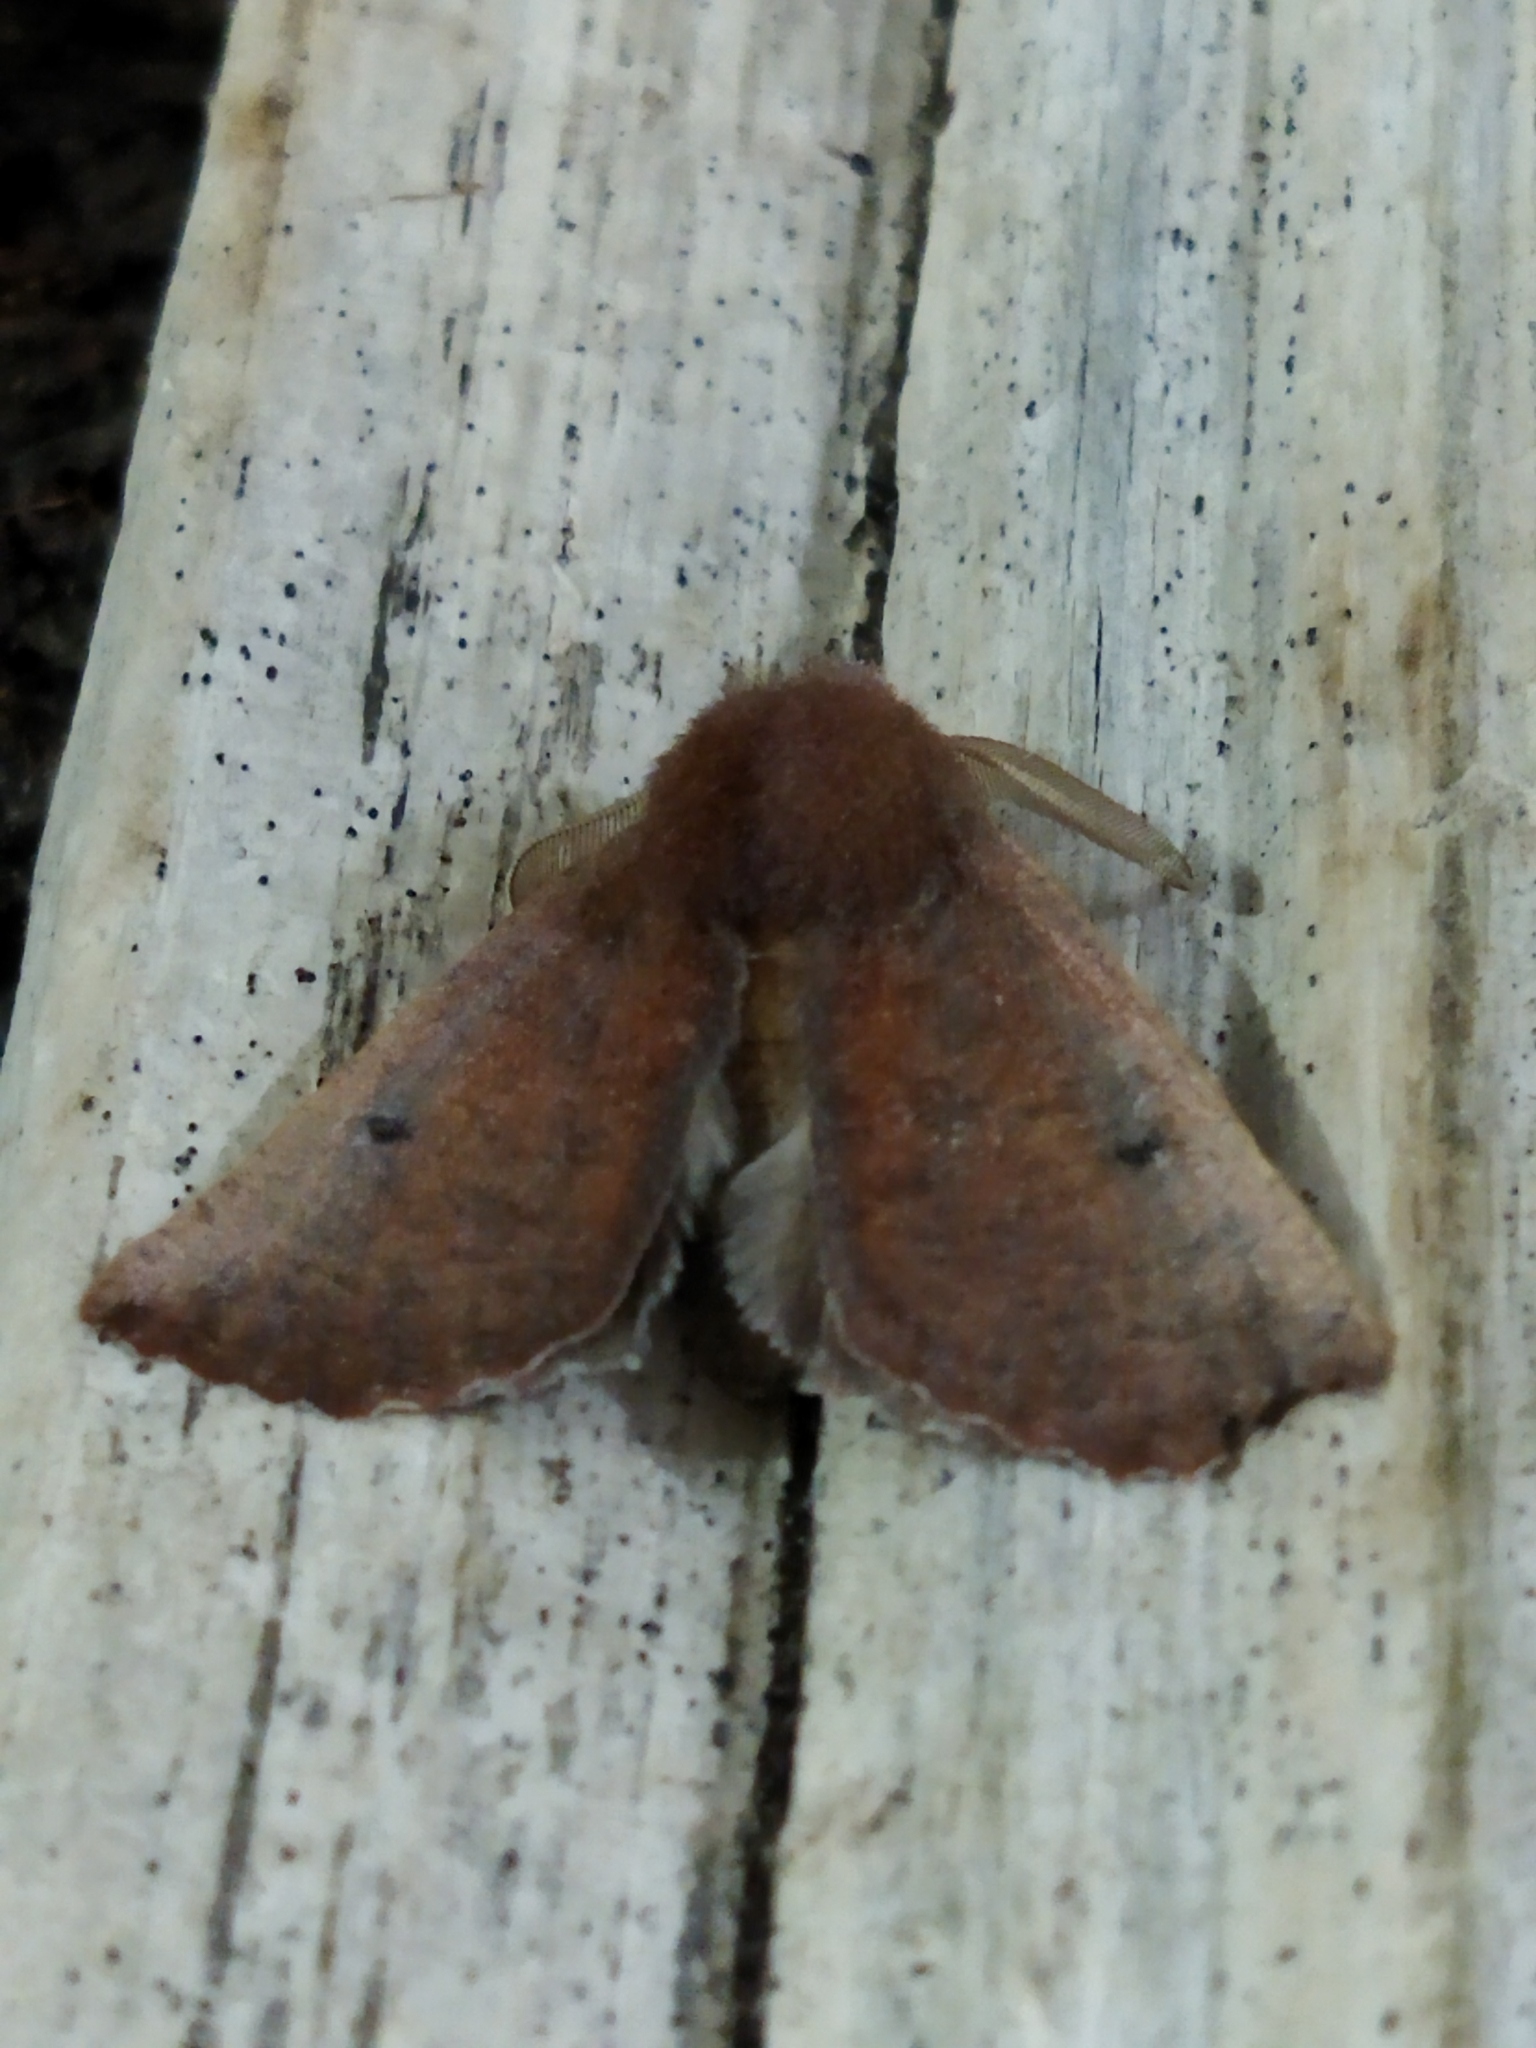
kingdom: Animalia
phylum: Arthropoda
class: Insecta
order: Lepidoptera
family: Geometridae
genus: Dasycorsa
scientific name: Dasycorsa modesta
